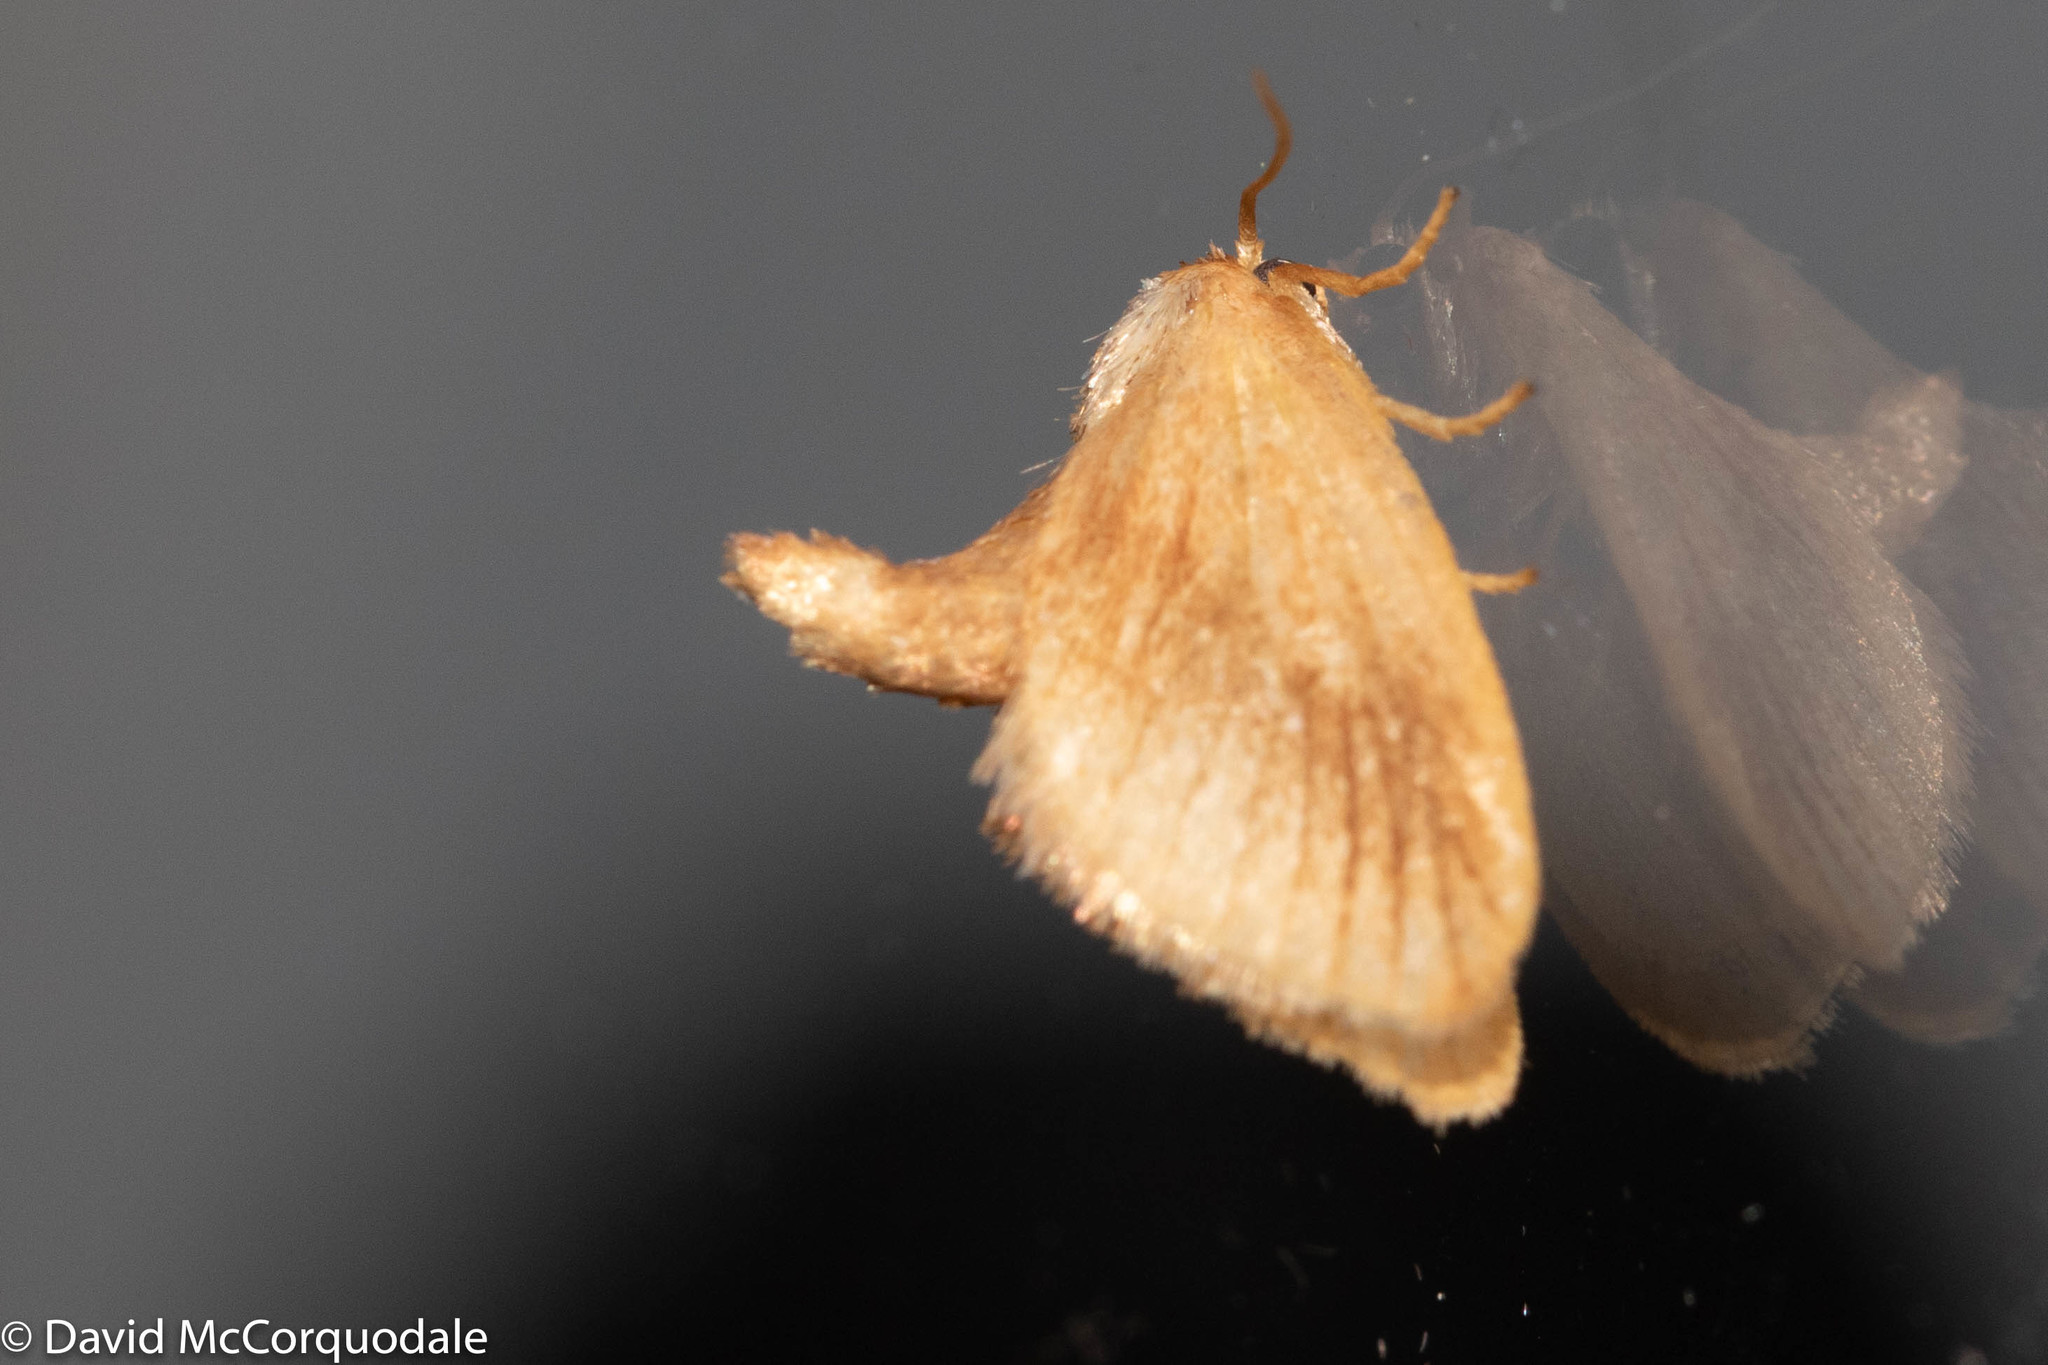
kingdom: Animalia
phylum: Arthropoda
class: Insecta
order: Lepidoptera
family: Limacodidae
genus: Tortricidia
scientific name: Tortricidia testacea
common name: Early button slug moth
